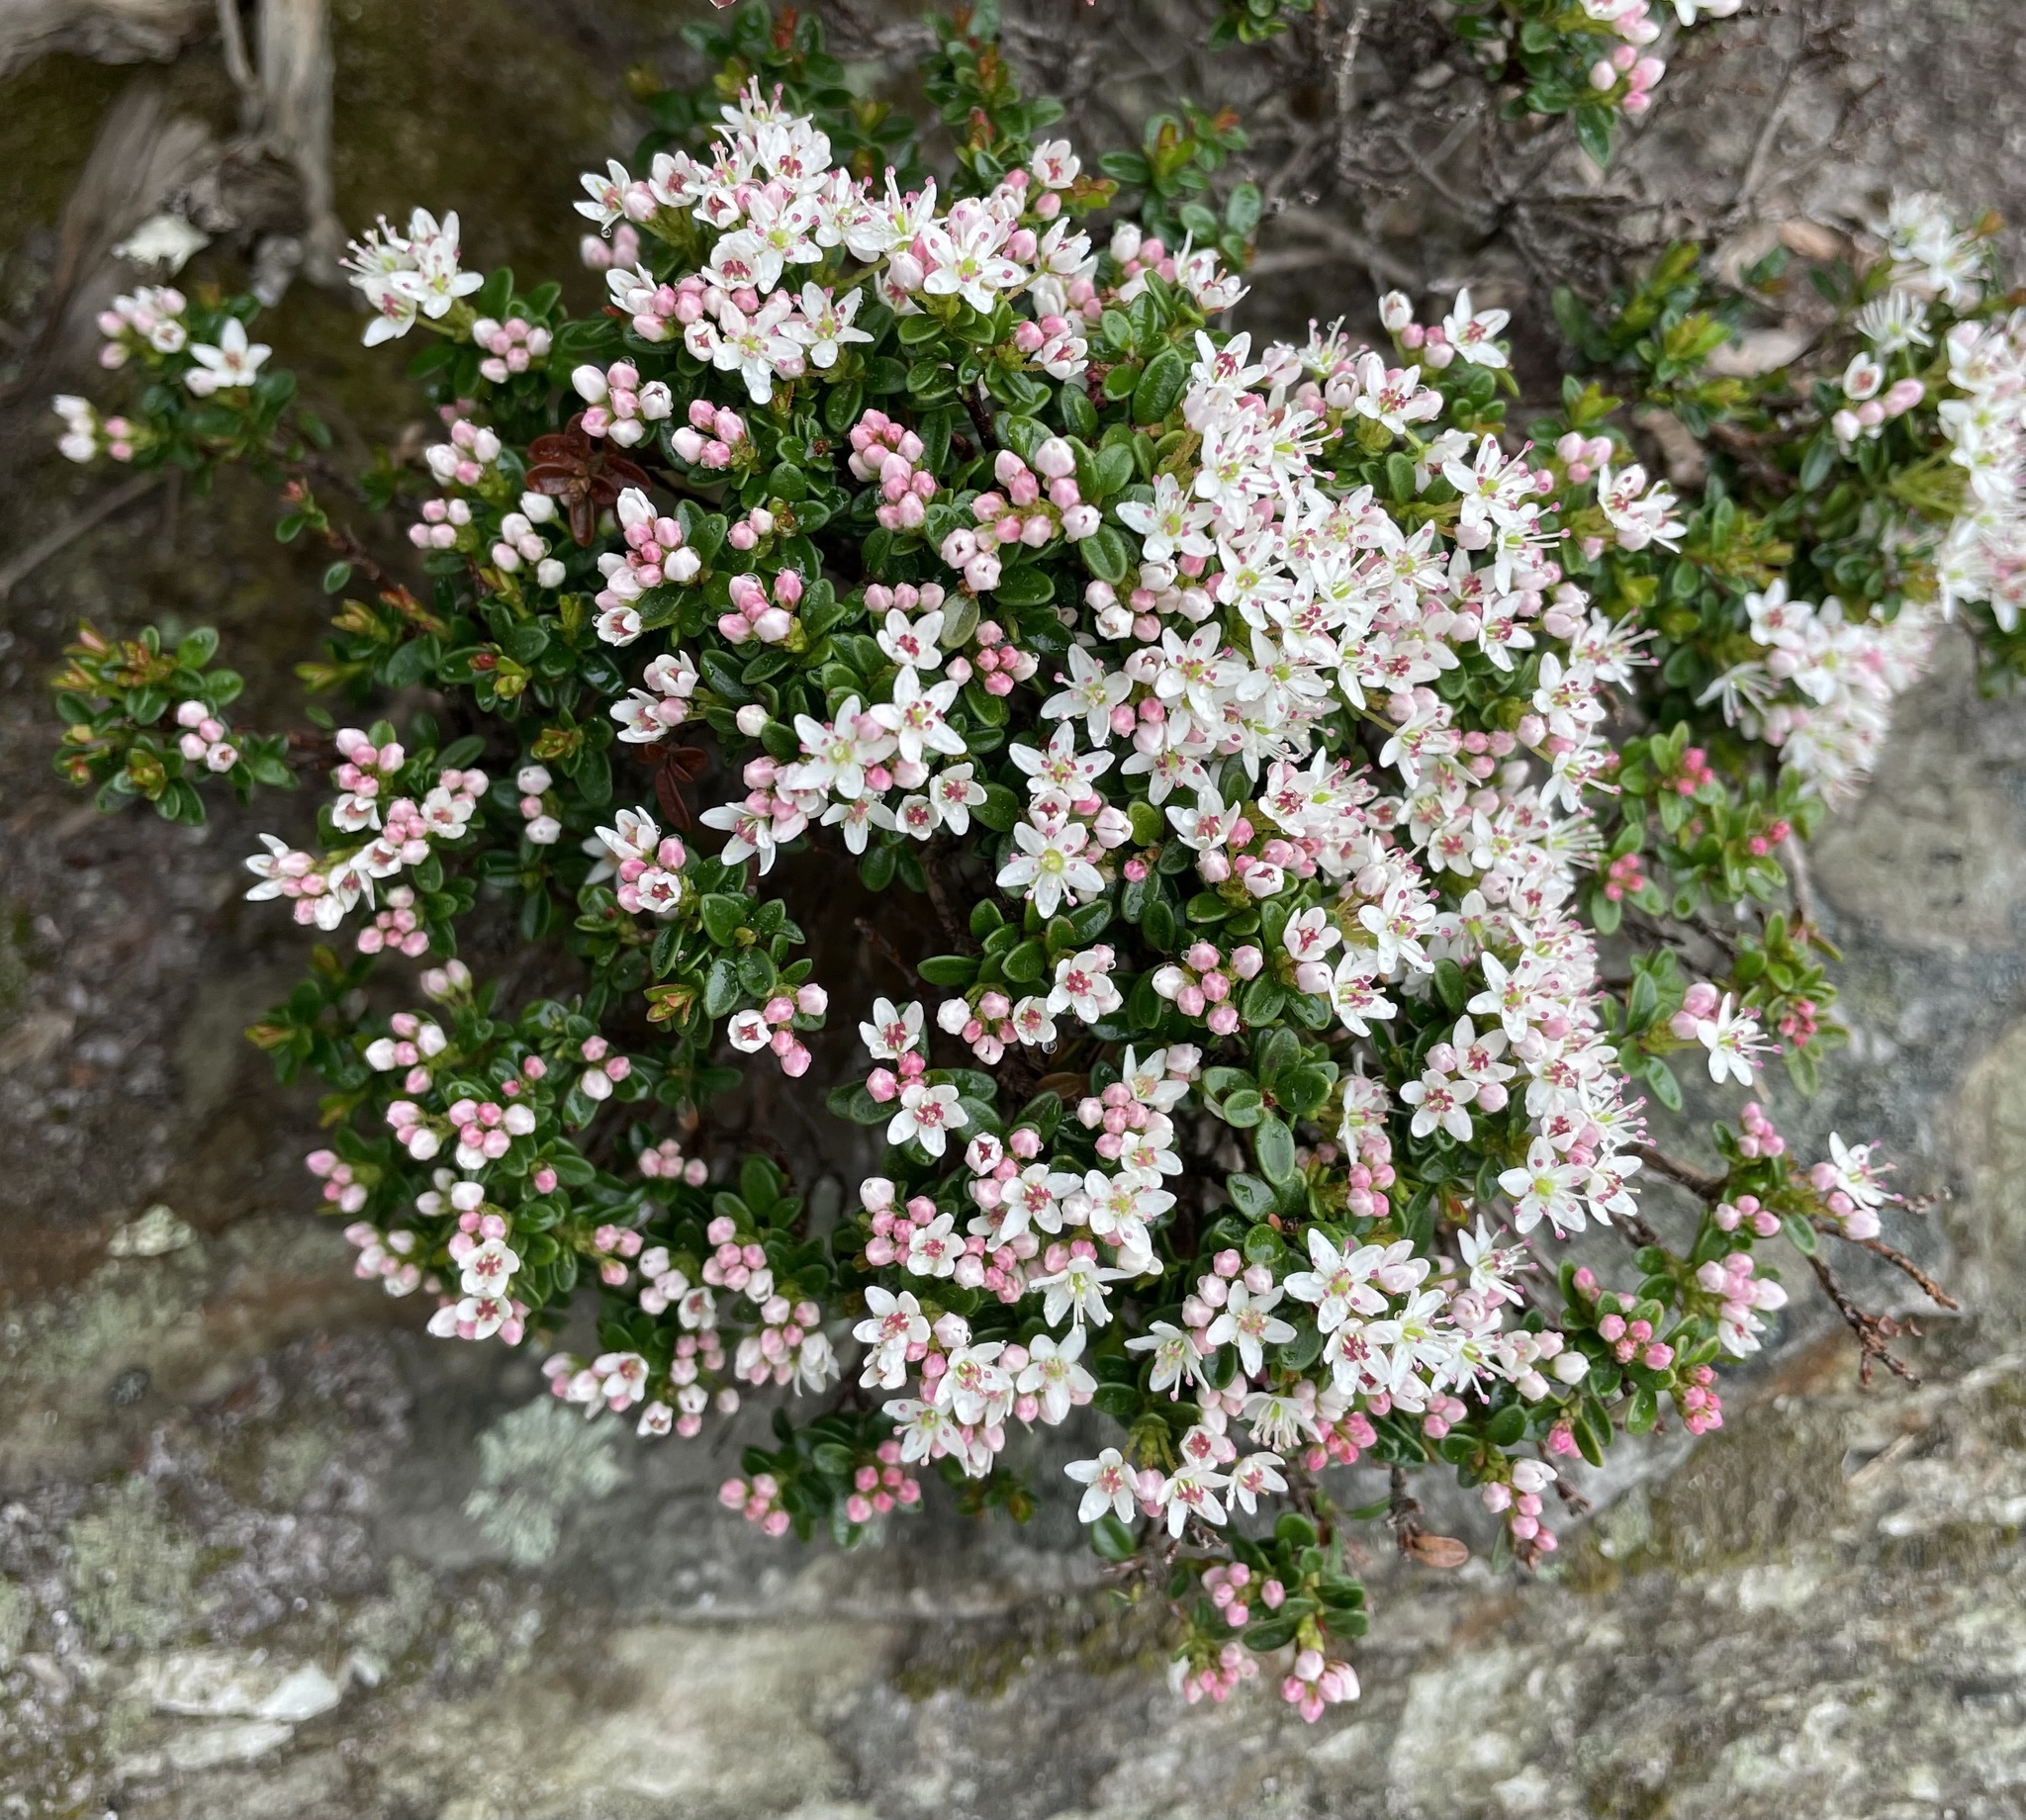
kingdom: Plantae
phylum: Tracheophyta
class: Magnoliopsida
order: Ericales
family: Ericaceae
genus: Kalmia
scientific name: Kalmia buxifolia
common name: Sandmyrtle
